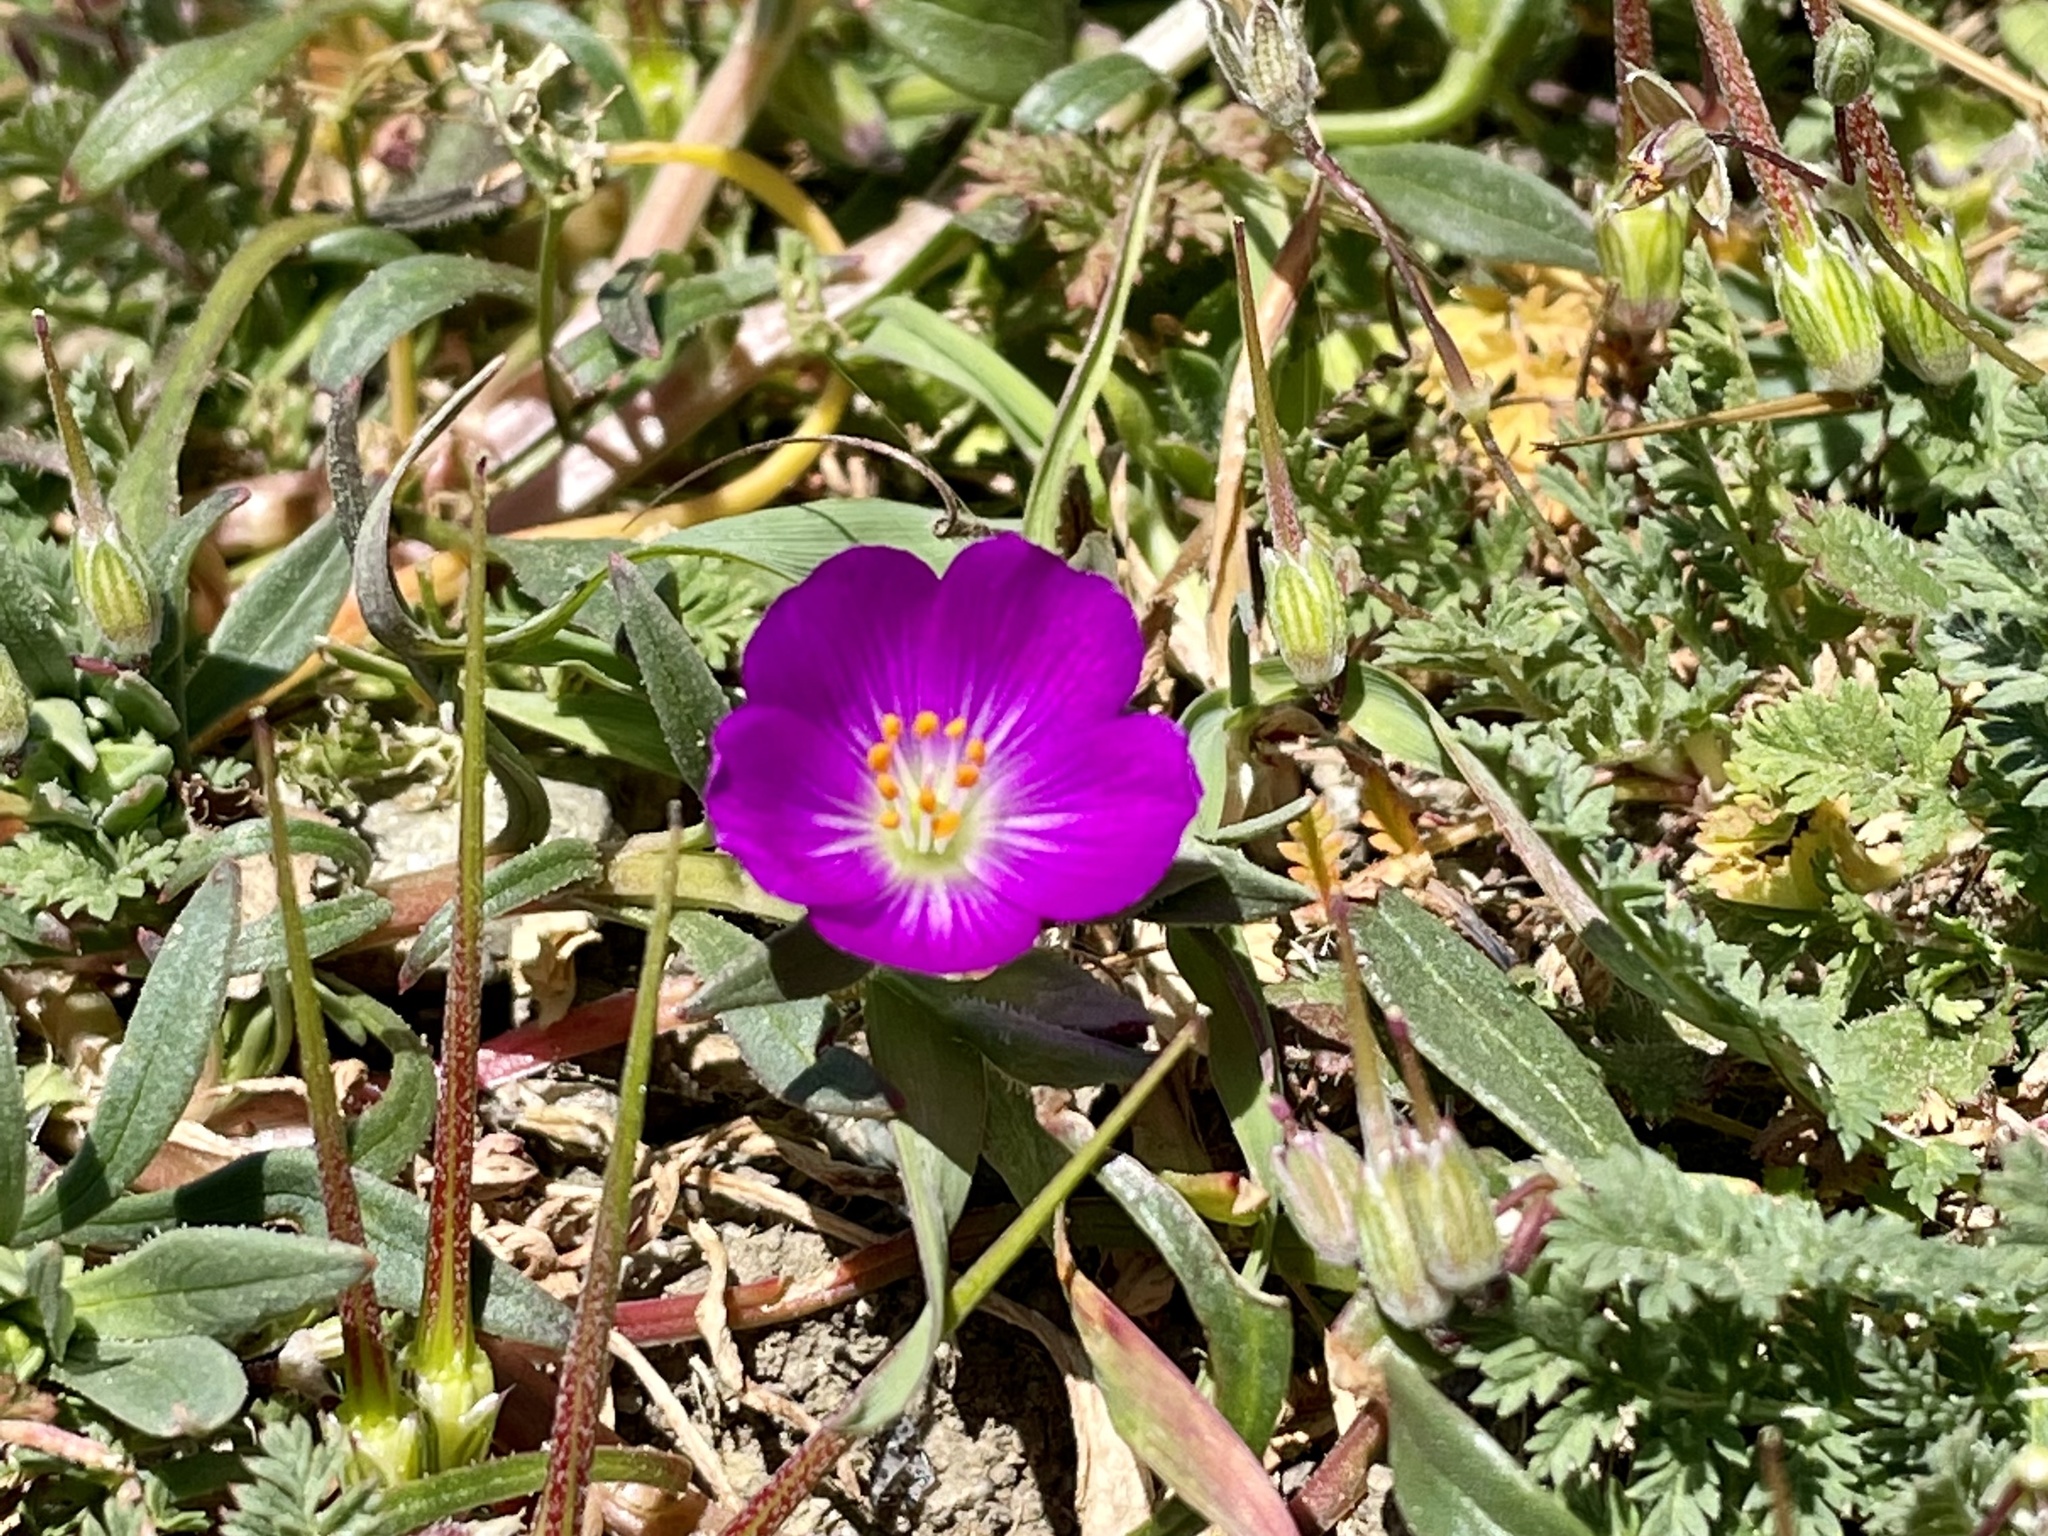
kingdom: Plantae
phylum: Tracheophyta
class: Magnoliopsida
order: Caryophyllales
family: Montiaceae
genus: Calandrinia
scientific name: Calandrinia menziesii
